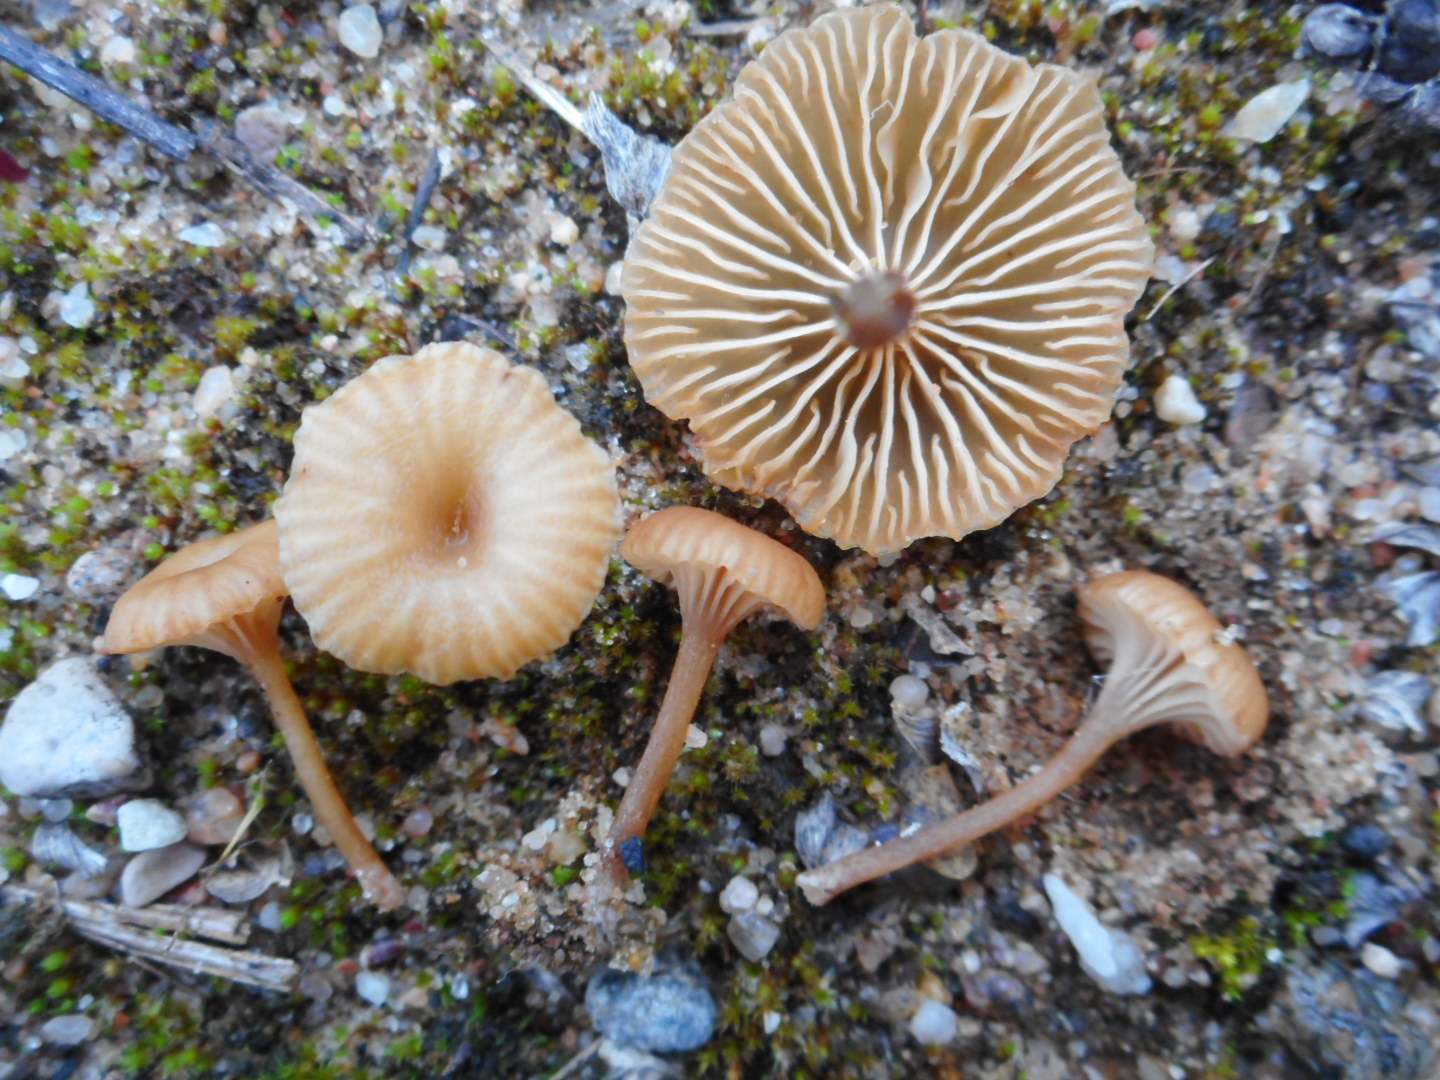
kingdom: Fungi
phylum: Basidiomycota
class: Agaricomycetes
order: Agaricales
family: Hygrophoraceae
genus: Lichenomphalia
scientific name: Lichenomphalia
